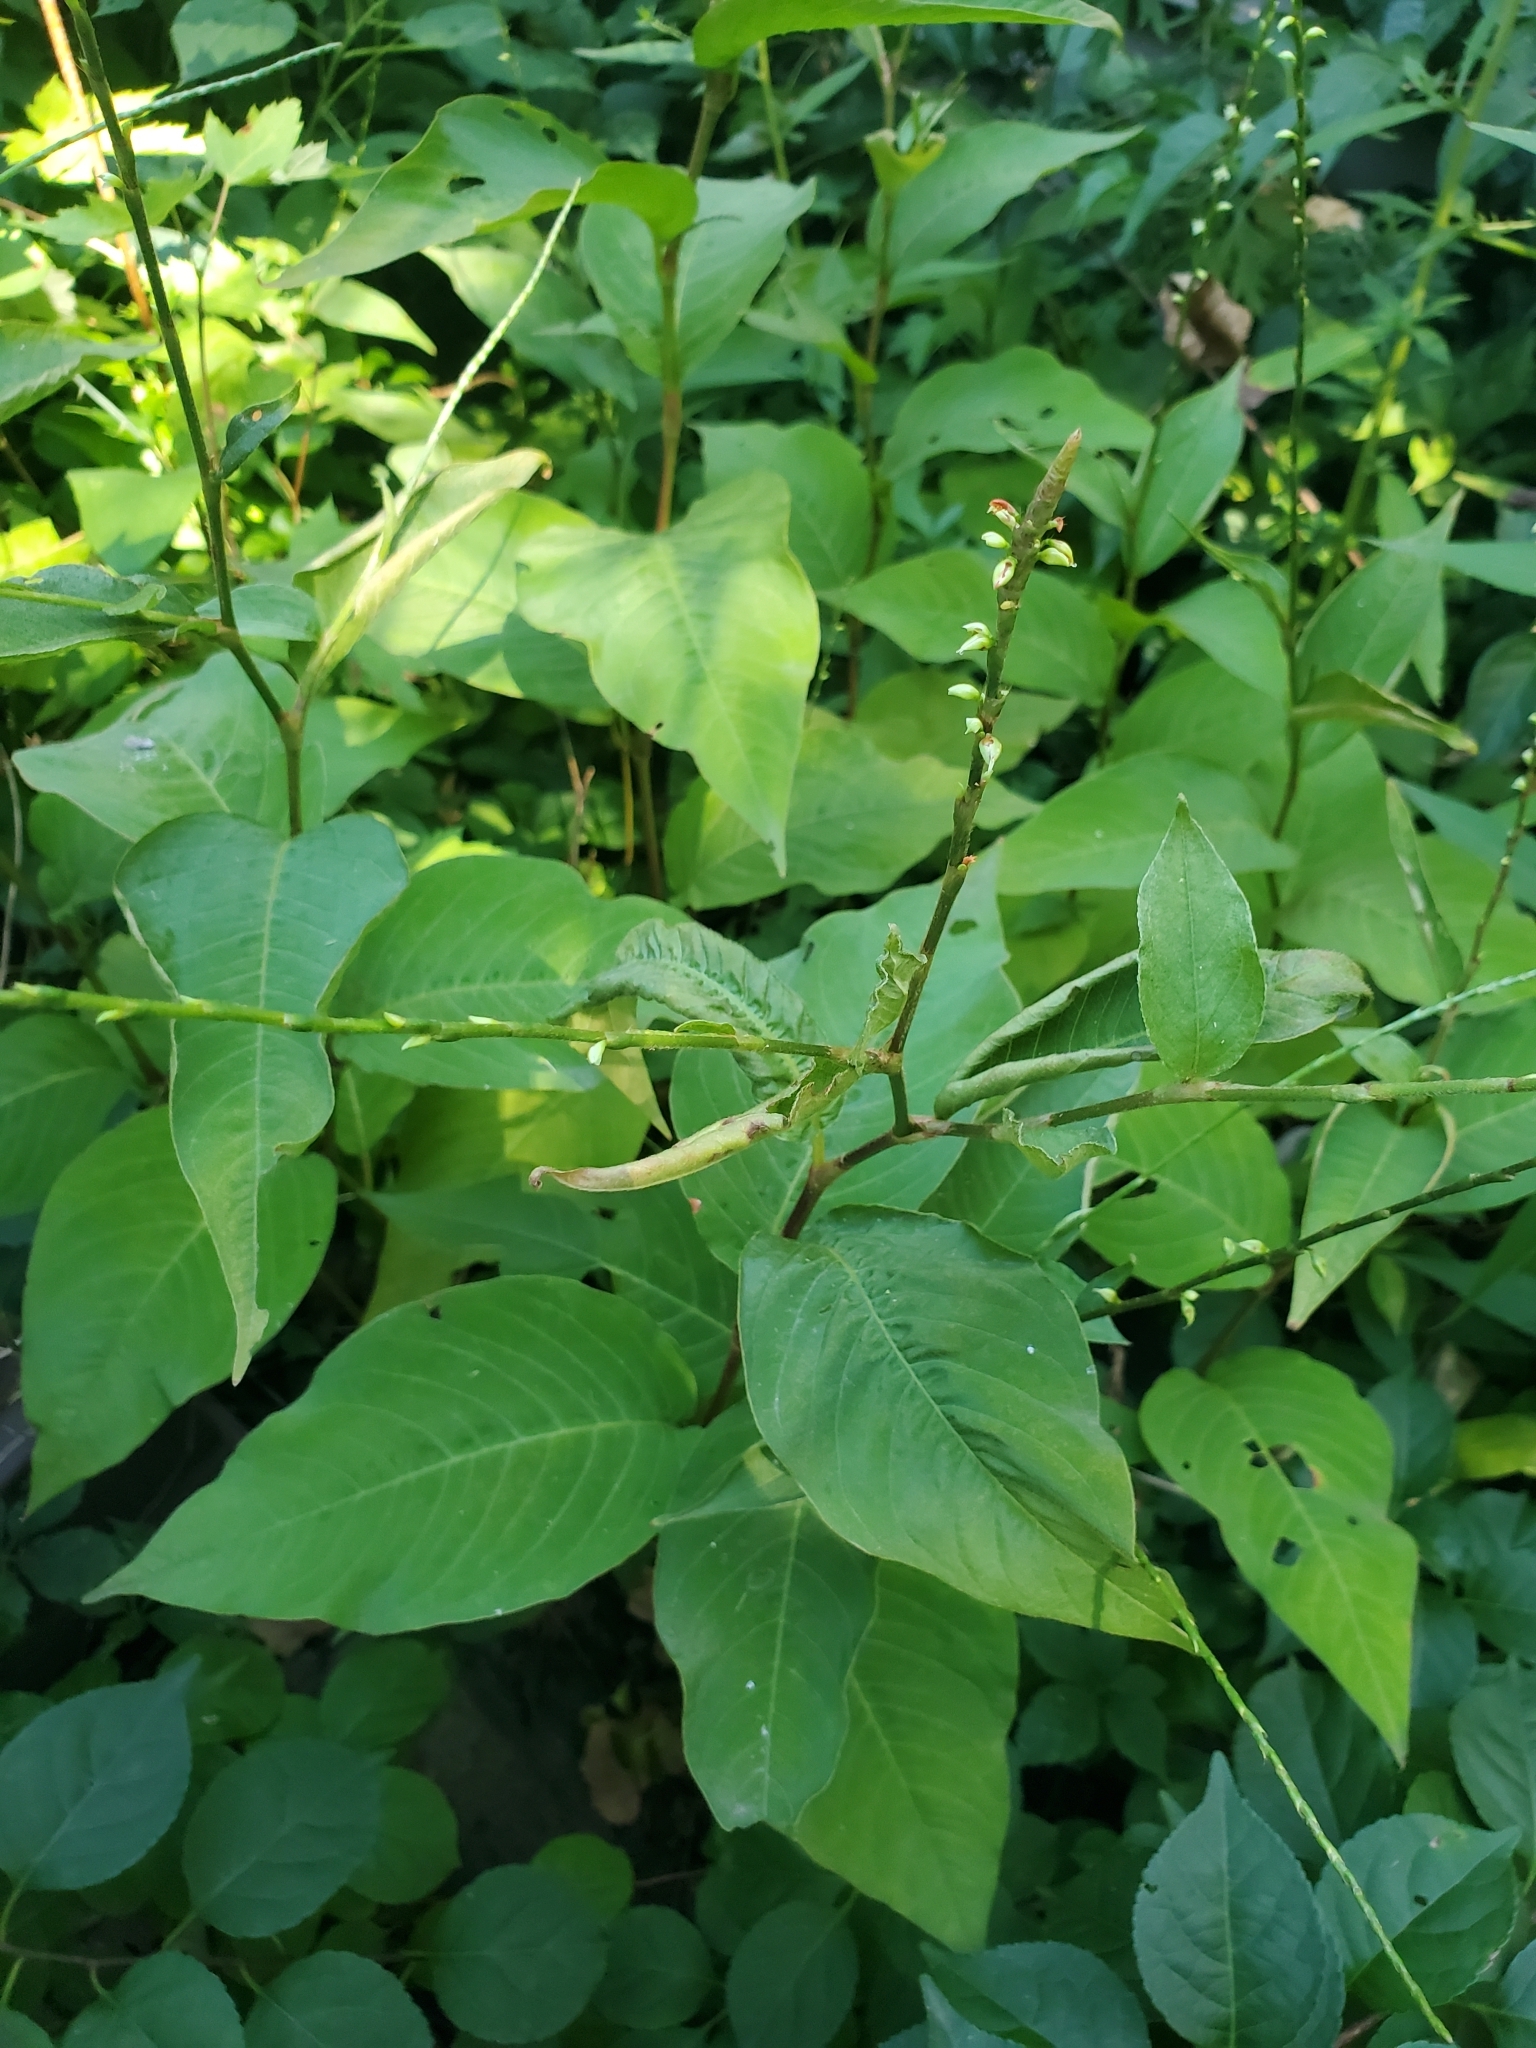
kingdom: Plantae
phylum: Tracheophyta
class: Magnoliopsida
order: Caryophyllales
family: Polygonaceae
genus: Persicaria
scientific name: Persicaria virginiana
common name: Jumpseed
